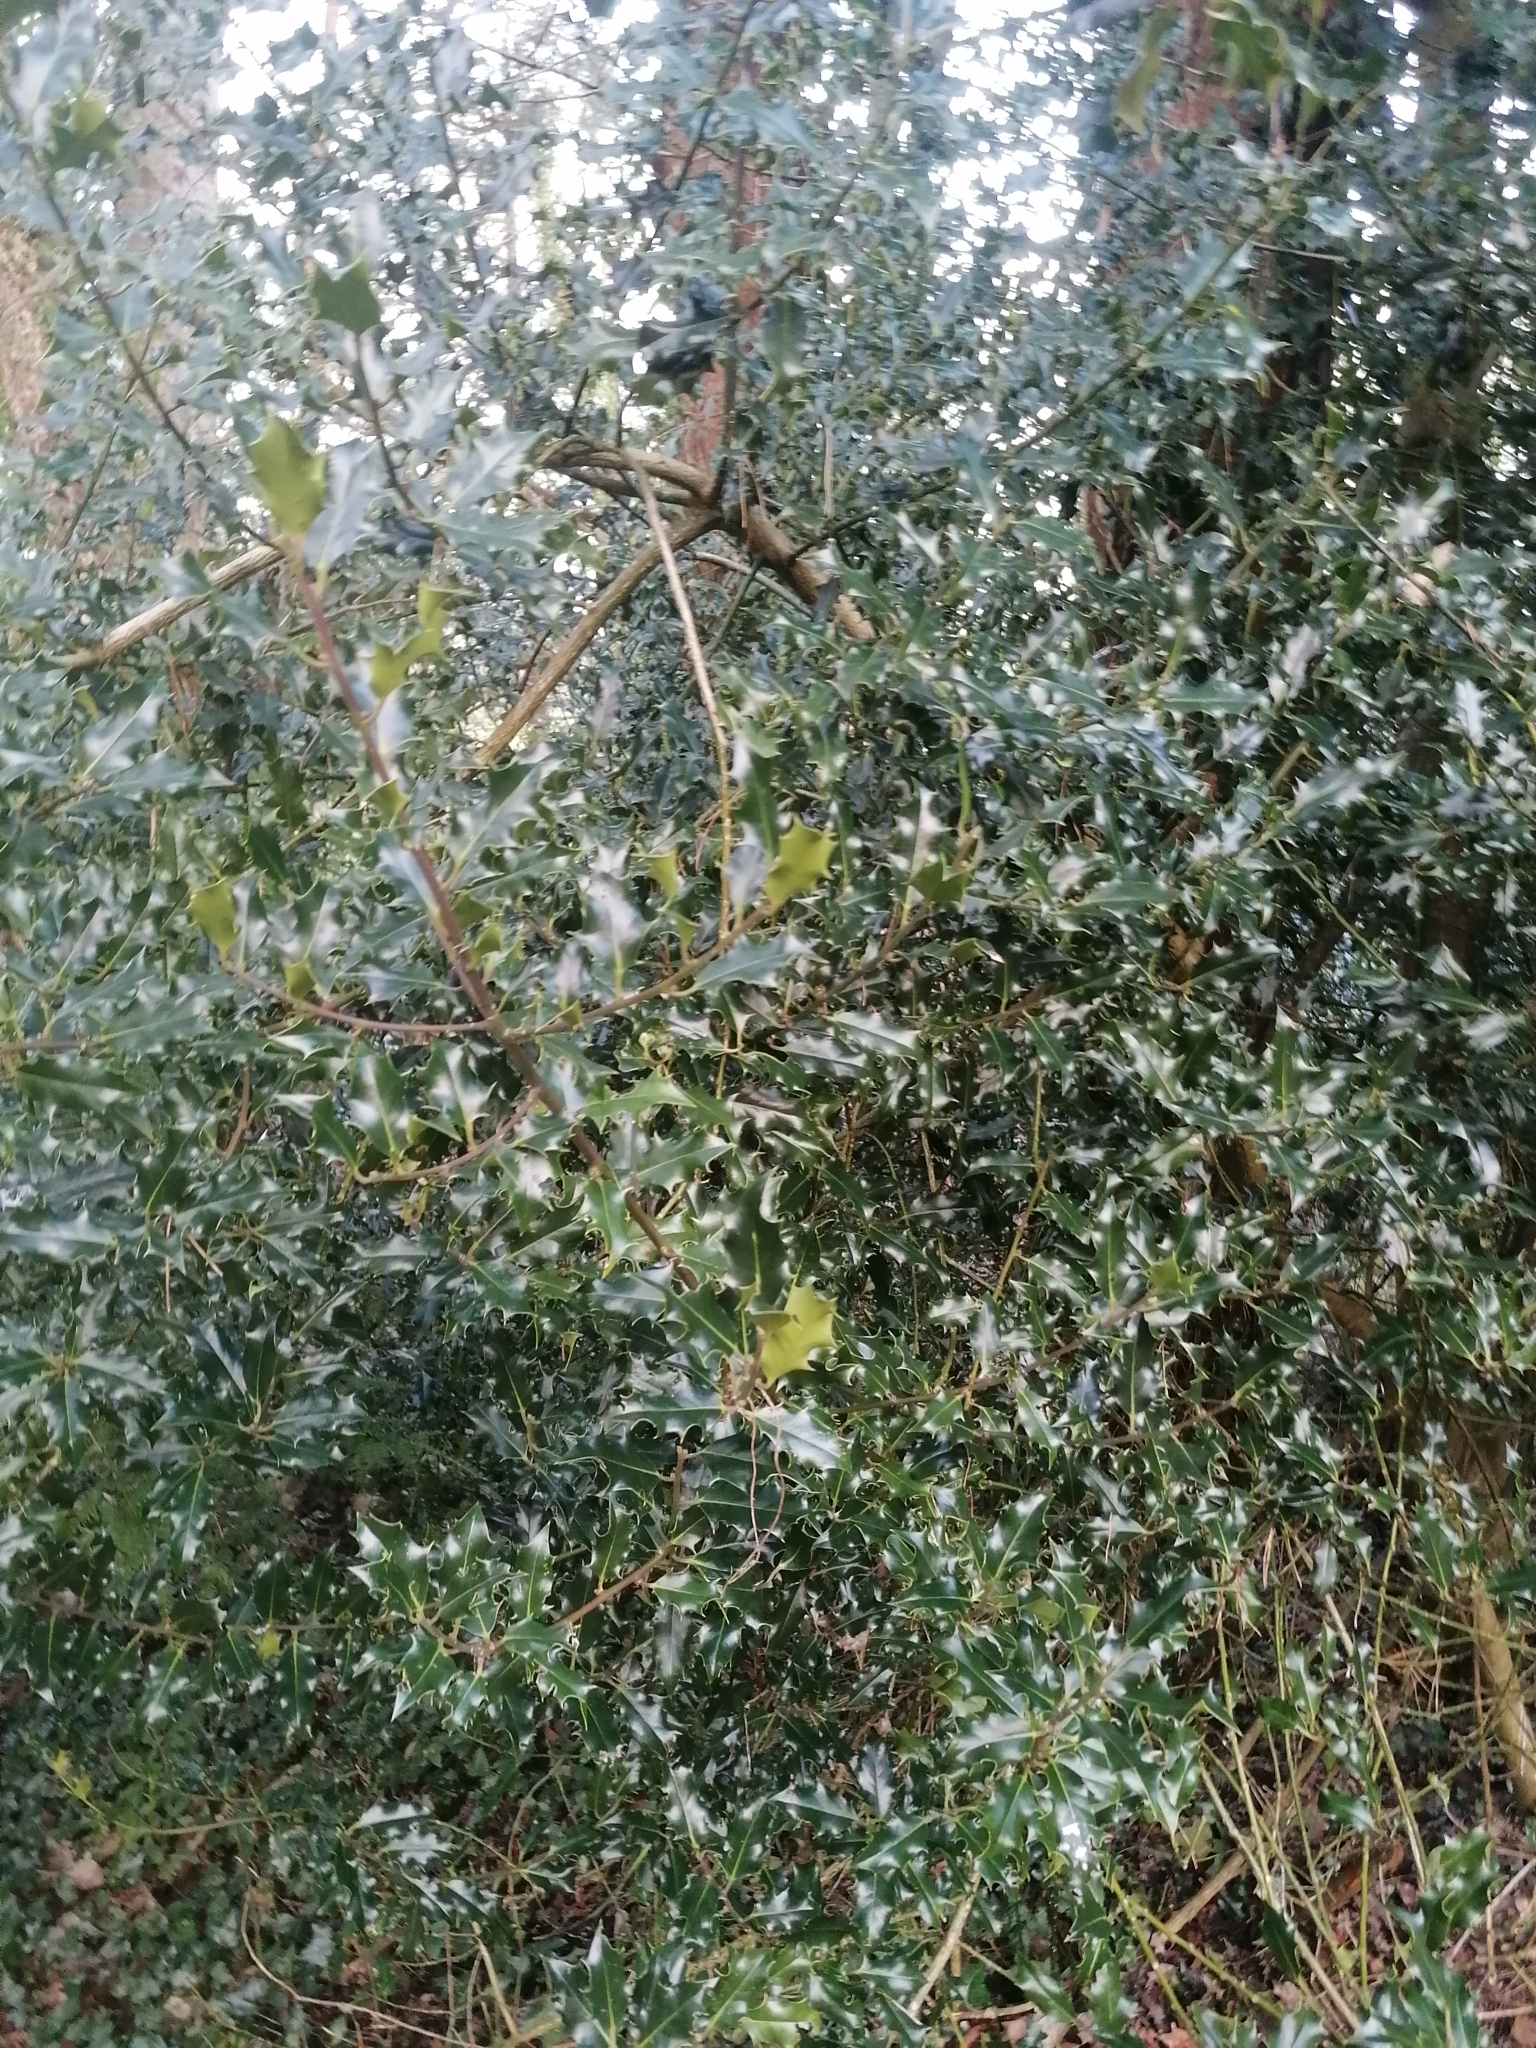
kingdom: Plantae
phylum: Tracheophyta
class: Magnoliopsida
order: Aquifoliales
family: Aquifoliaceae
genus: Ilex
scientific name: Ilex aquifolium
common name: English holly
